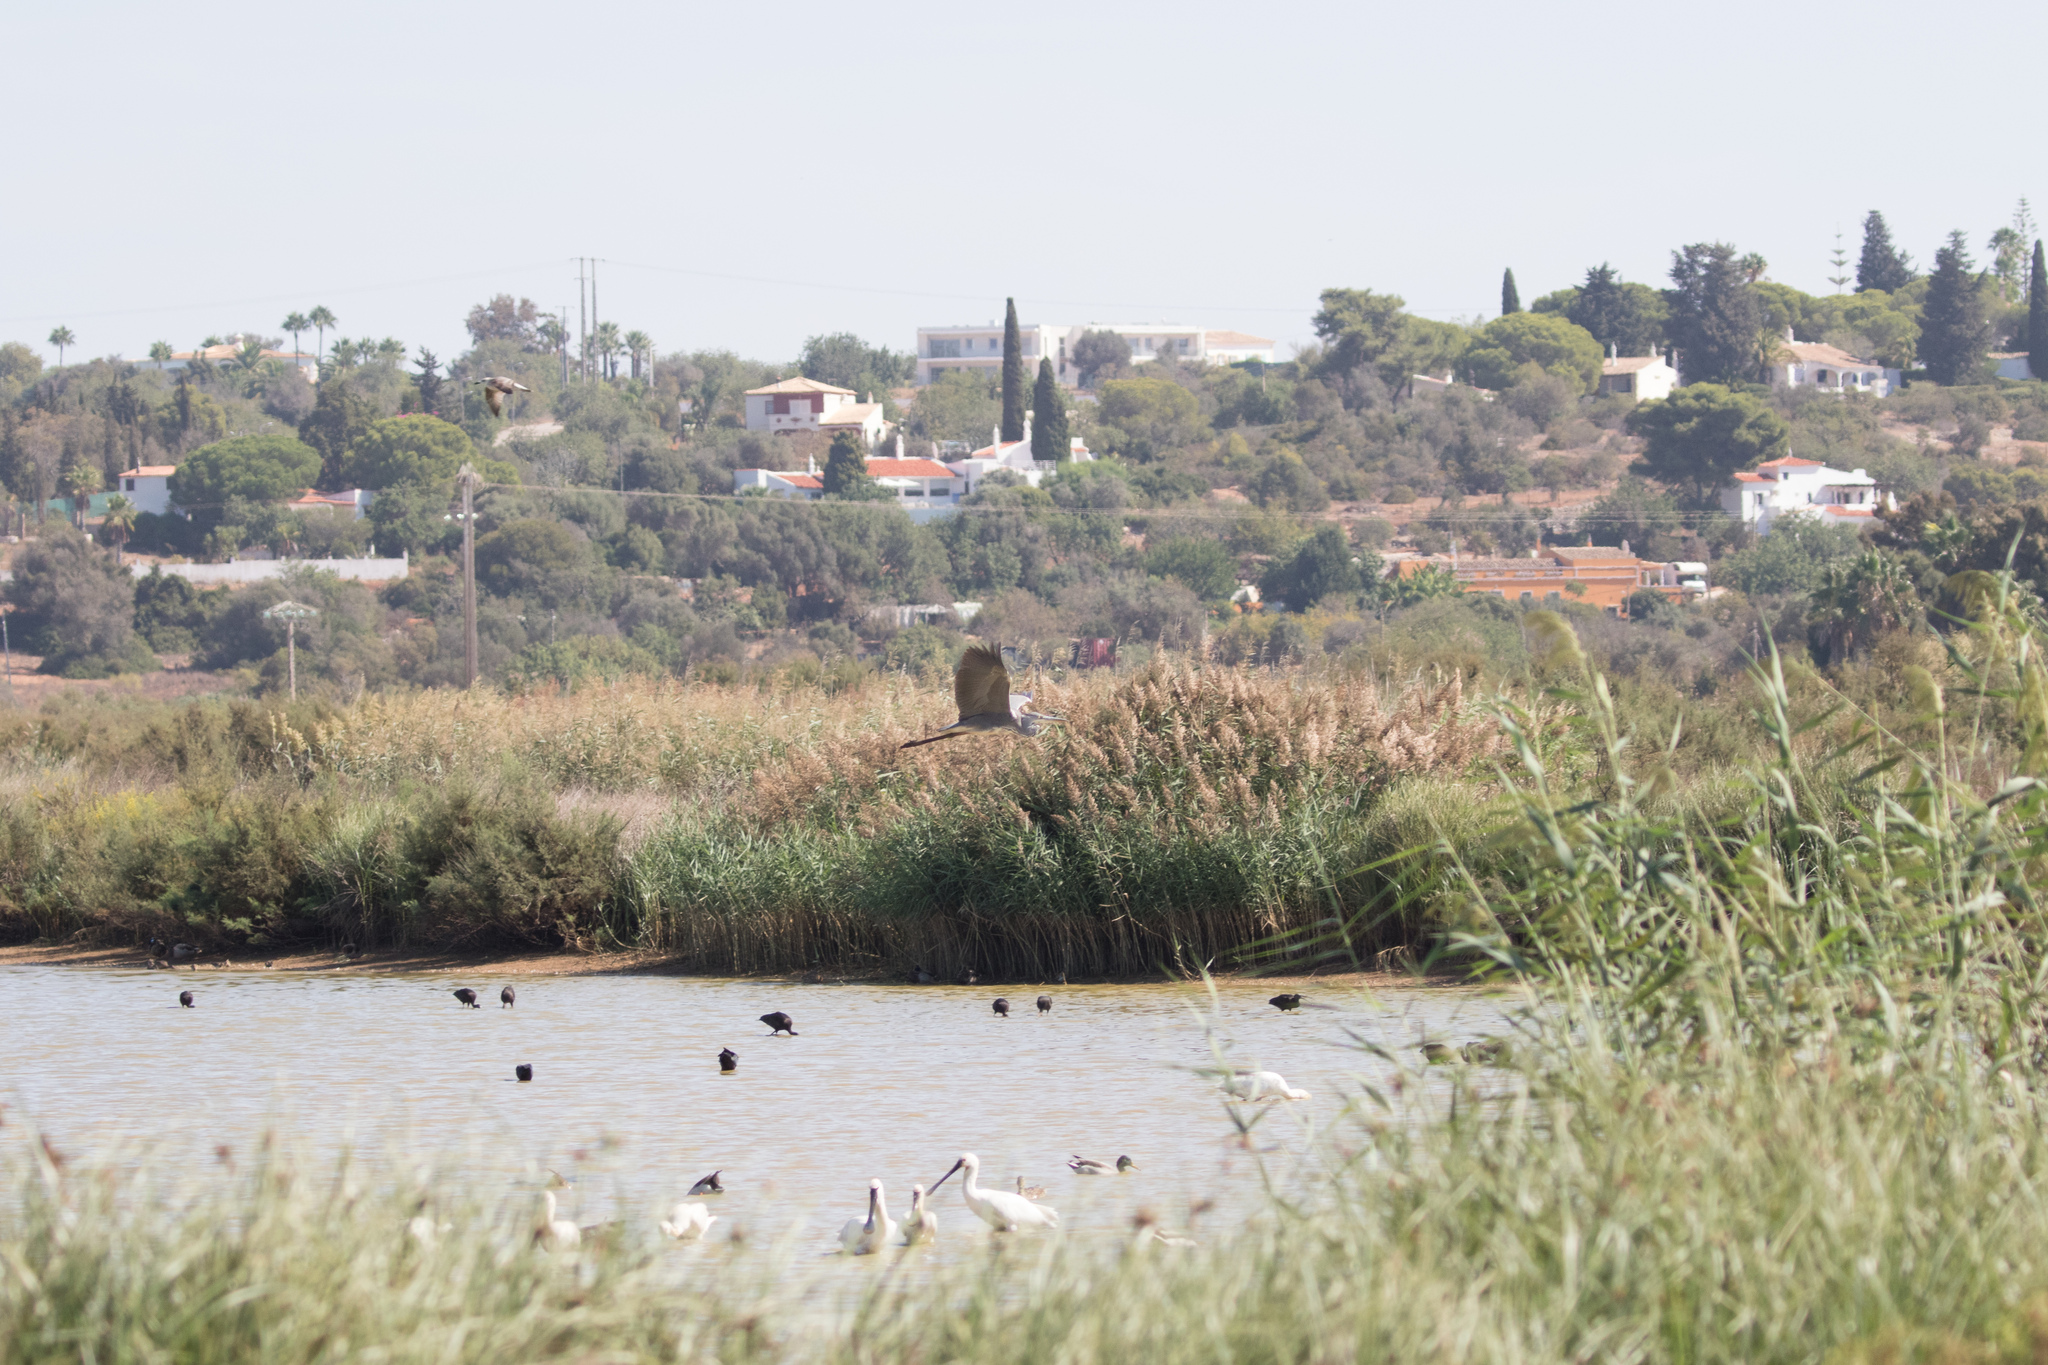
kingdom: Animalia
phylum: Chordata
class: Aves
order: Pelecaniformes
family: Ardeidae
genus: Ardea
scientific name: Ardea cinerea
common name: Grey heron
